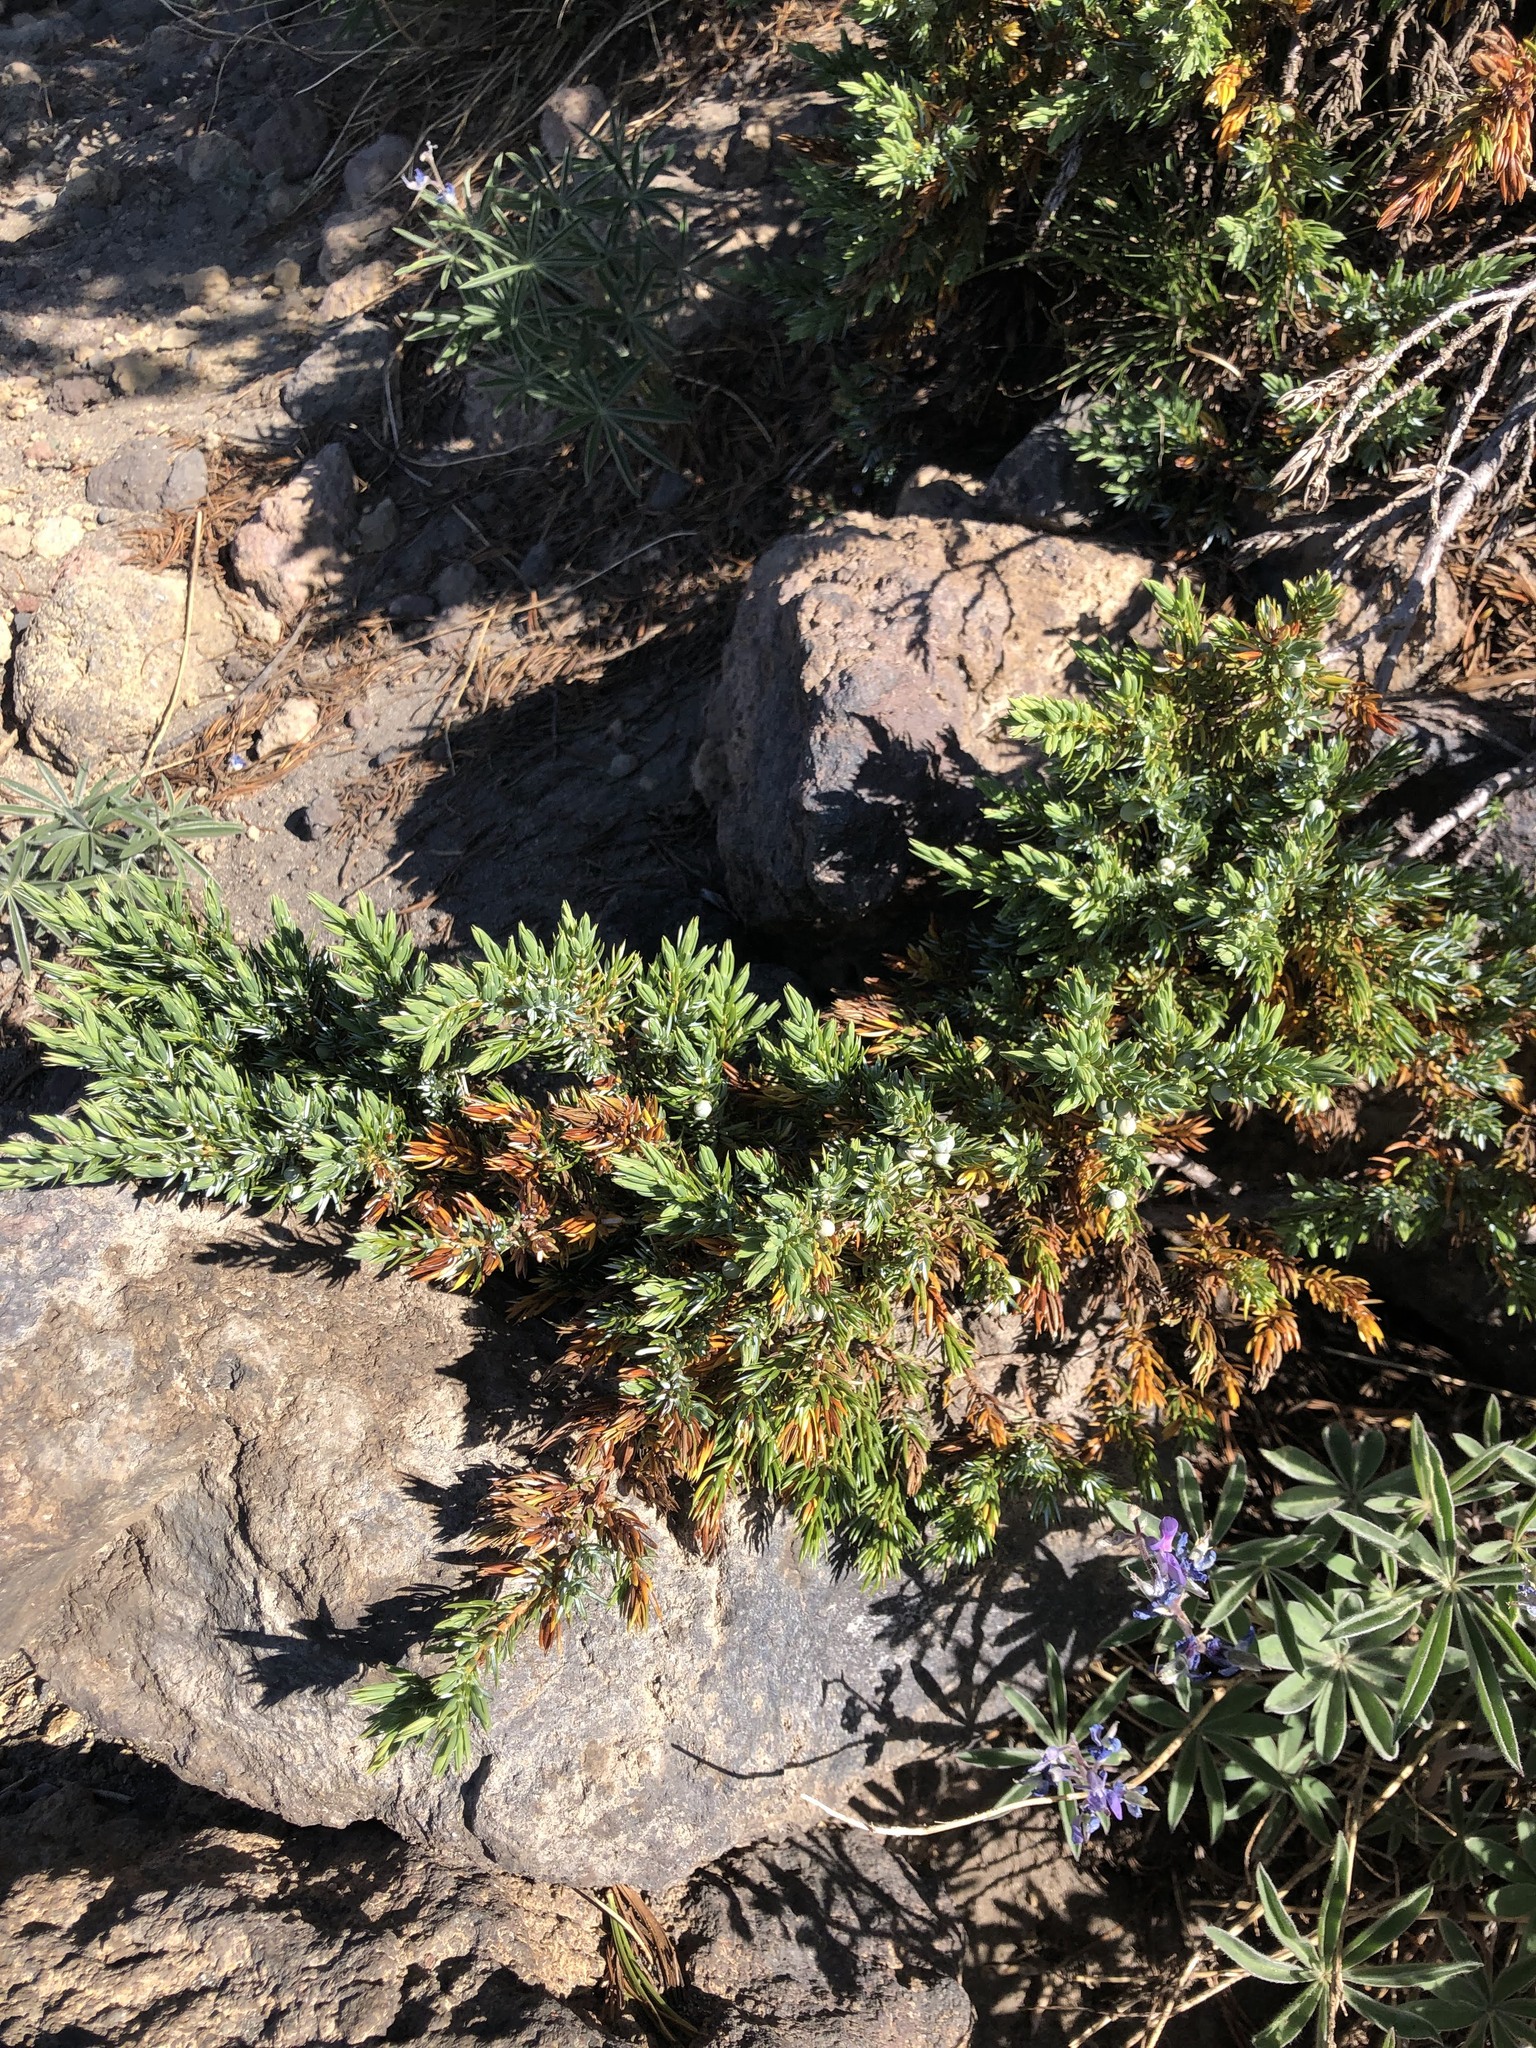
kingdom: Plantae
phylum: Tracheophyta
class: Pinopsida
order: Pinales
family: Cupressaceae
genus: Juniperus
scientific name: Juniperus communis
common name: Common juniper
